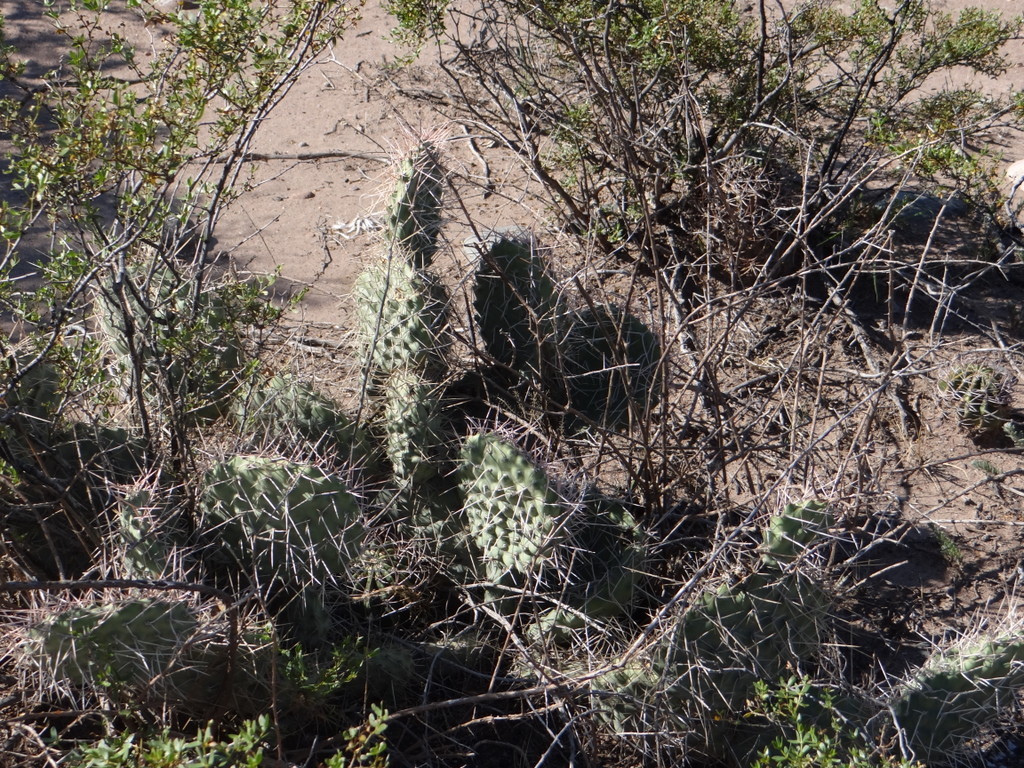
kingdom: Plantae
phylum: Tracheophyta
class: Magnoliopsida
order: Caryophyllales
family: Cactaceae
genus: Opuntia
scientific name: Opuntia sulphurea
